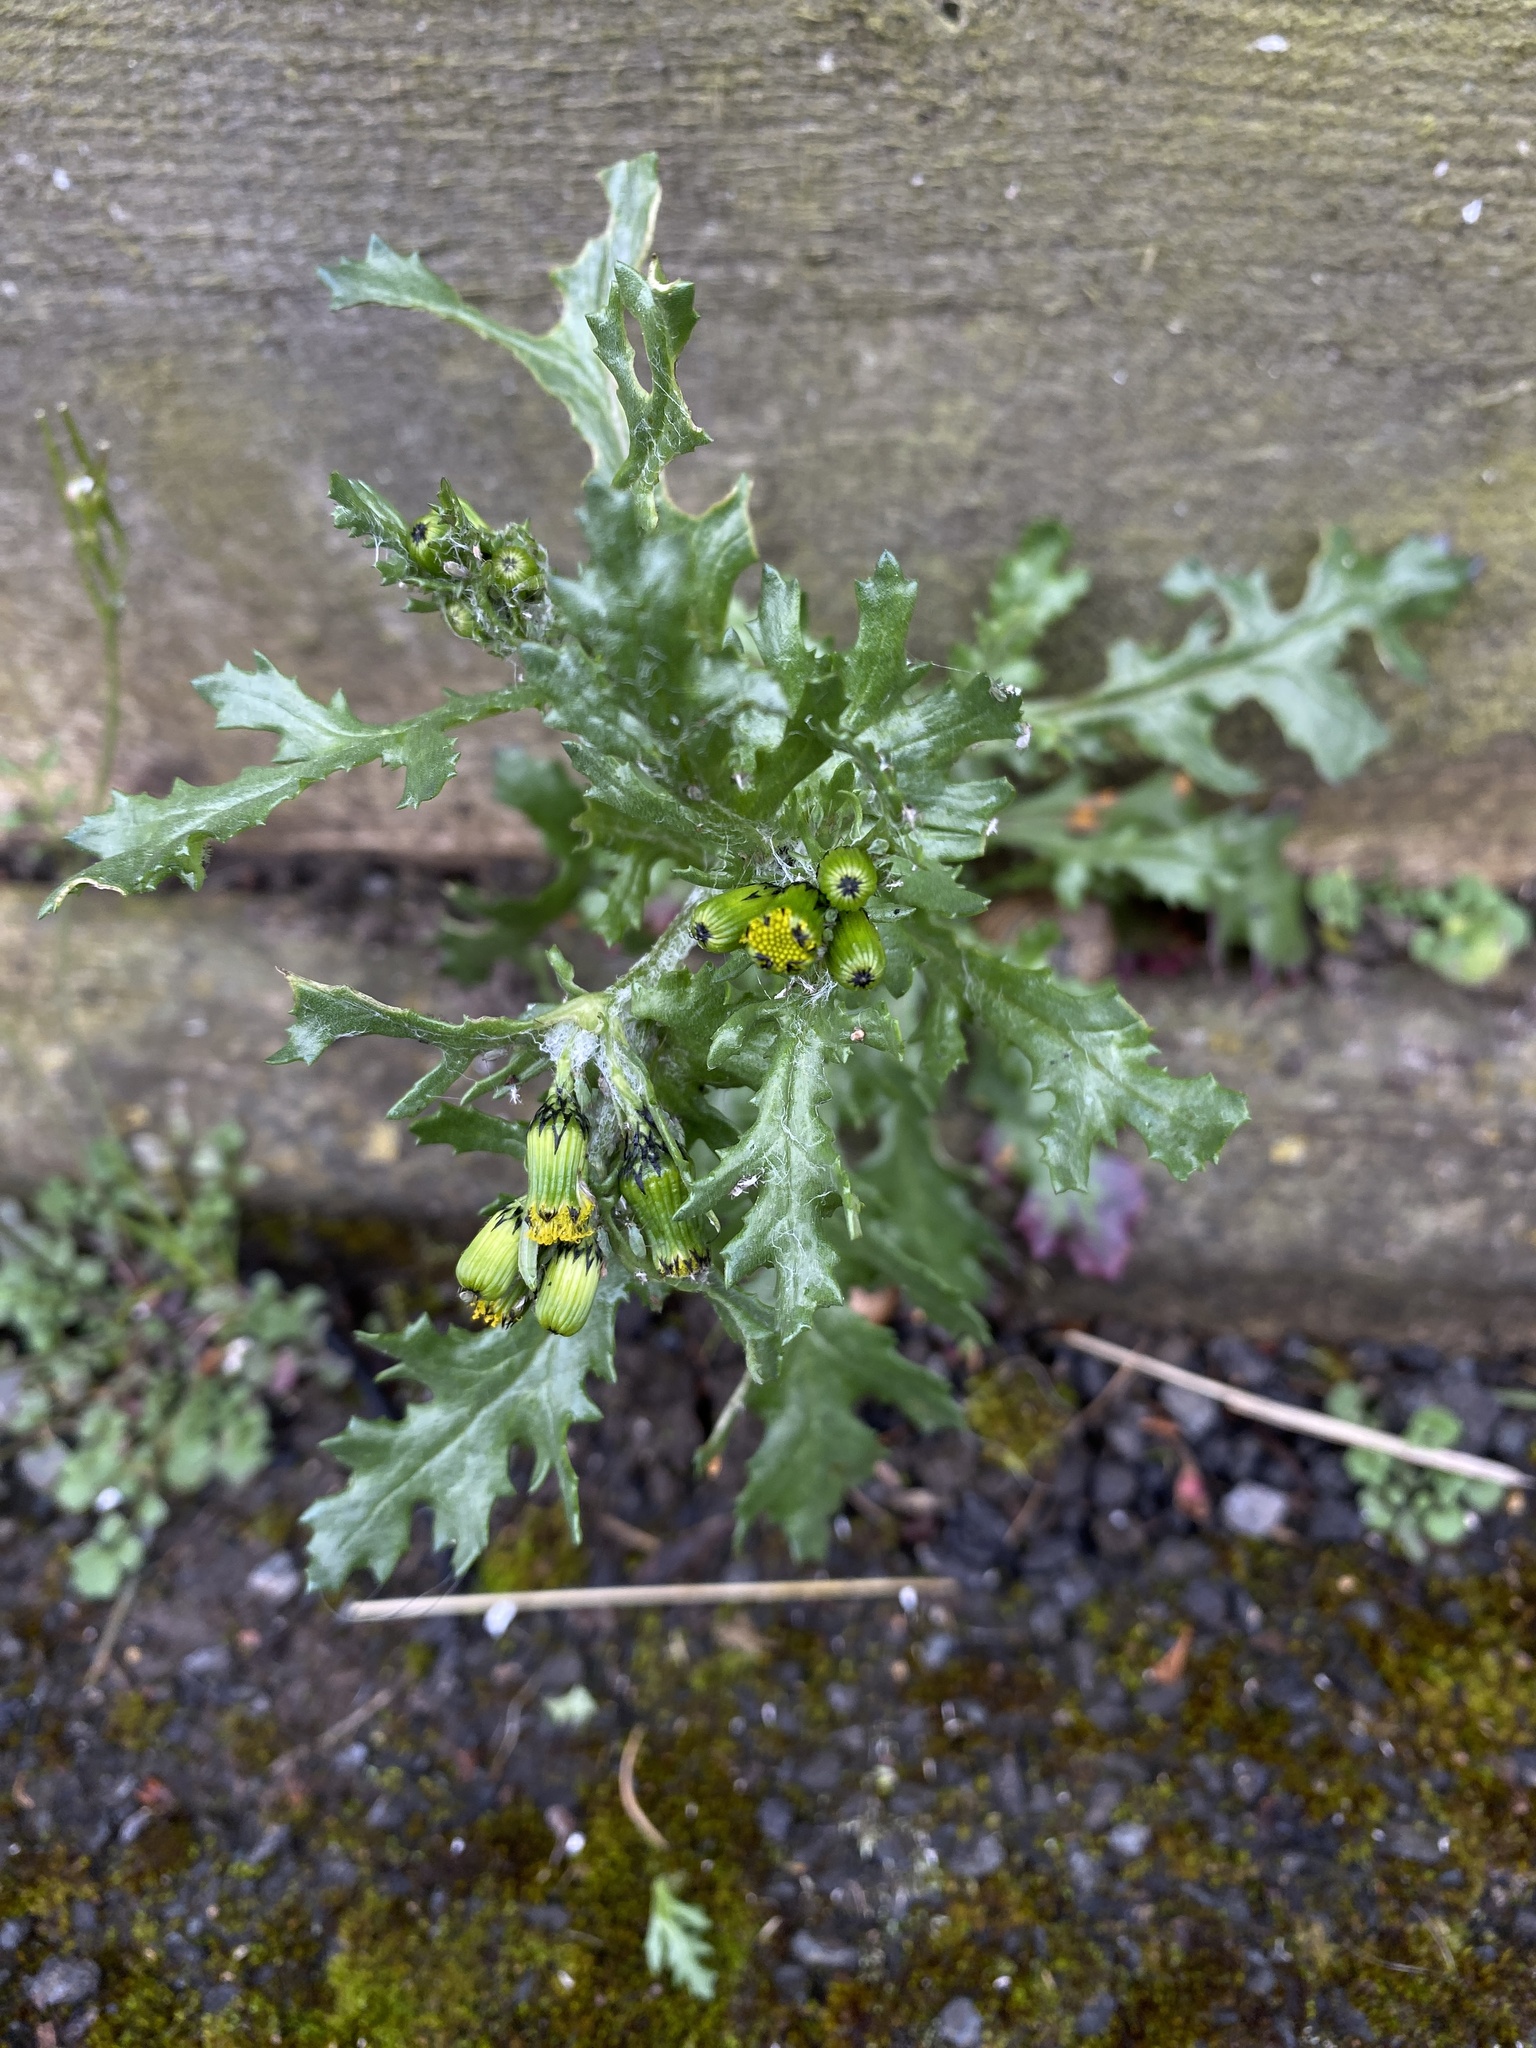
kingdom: Plantae
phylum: Tracheophyta
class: Magnoliopsida
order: Asterales
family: Asteraceae
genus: Senecio
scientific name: Senecio vulgaris
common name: Old-man-in-the-spring
